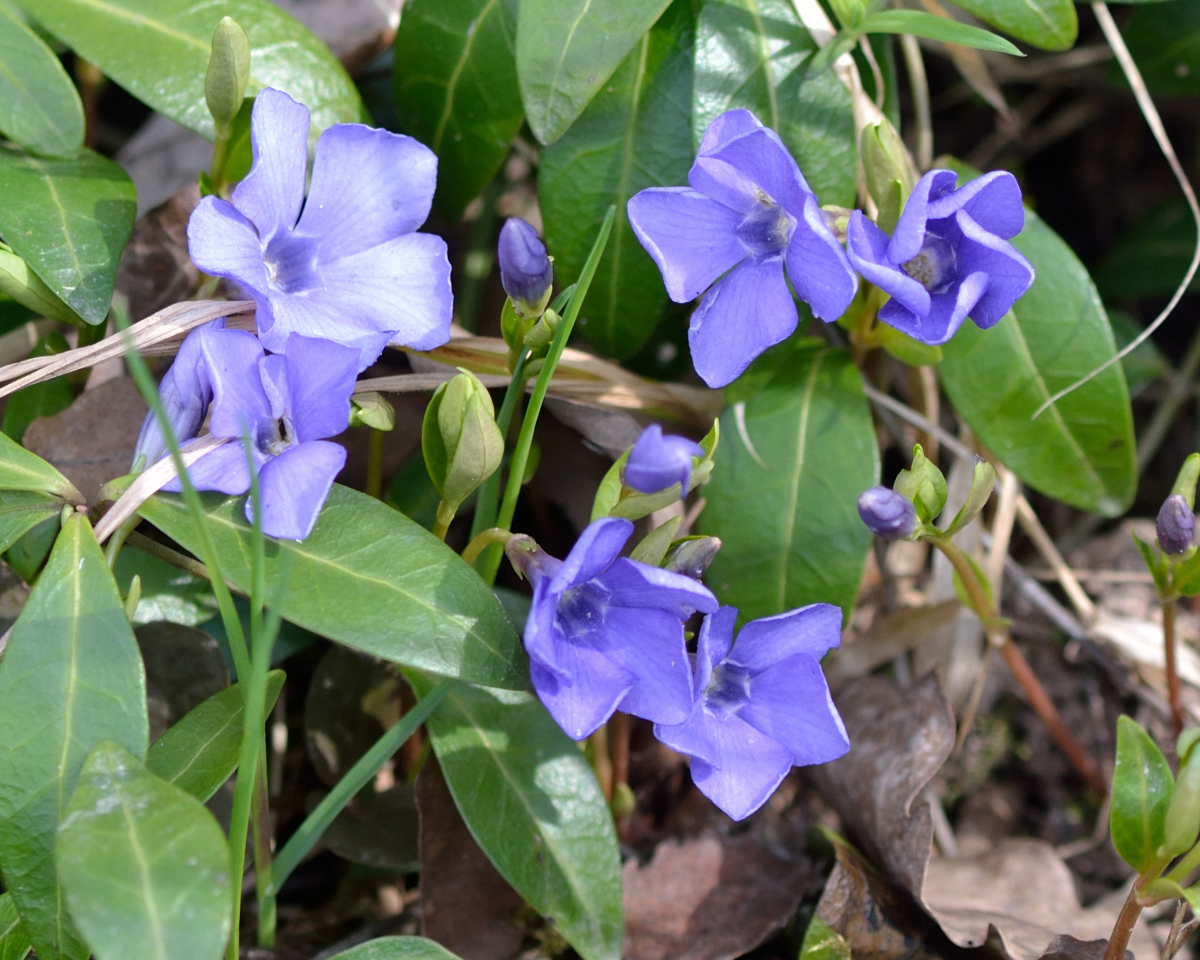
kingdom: Plantae
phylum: Tracheophyta
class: Magnoliopsida
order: Gentianales
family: Apocynaceae
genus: Vinca
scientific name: Vinca minor
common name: Lesser periwinkle
